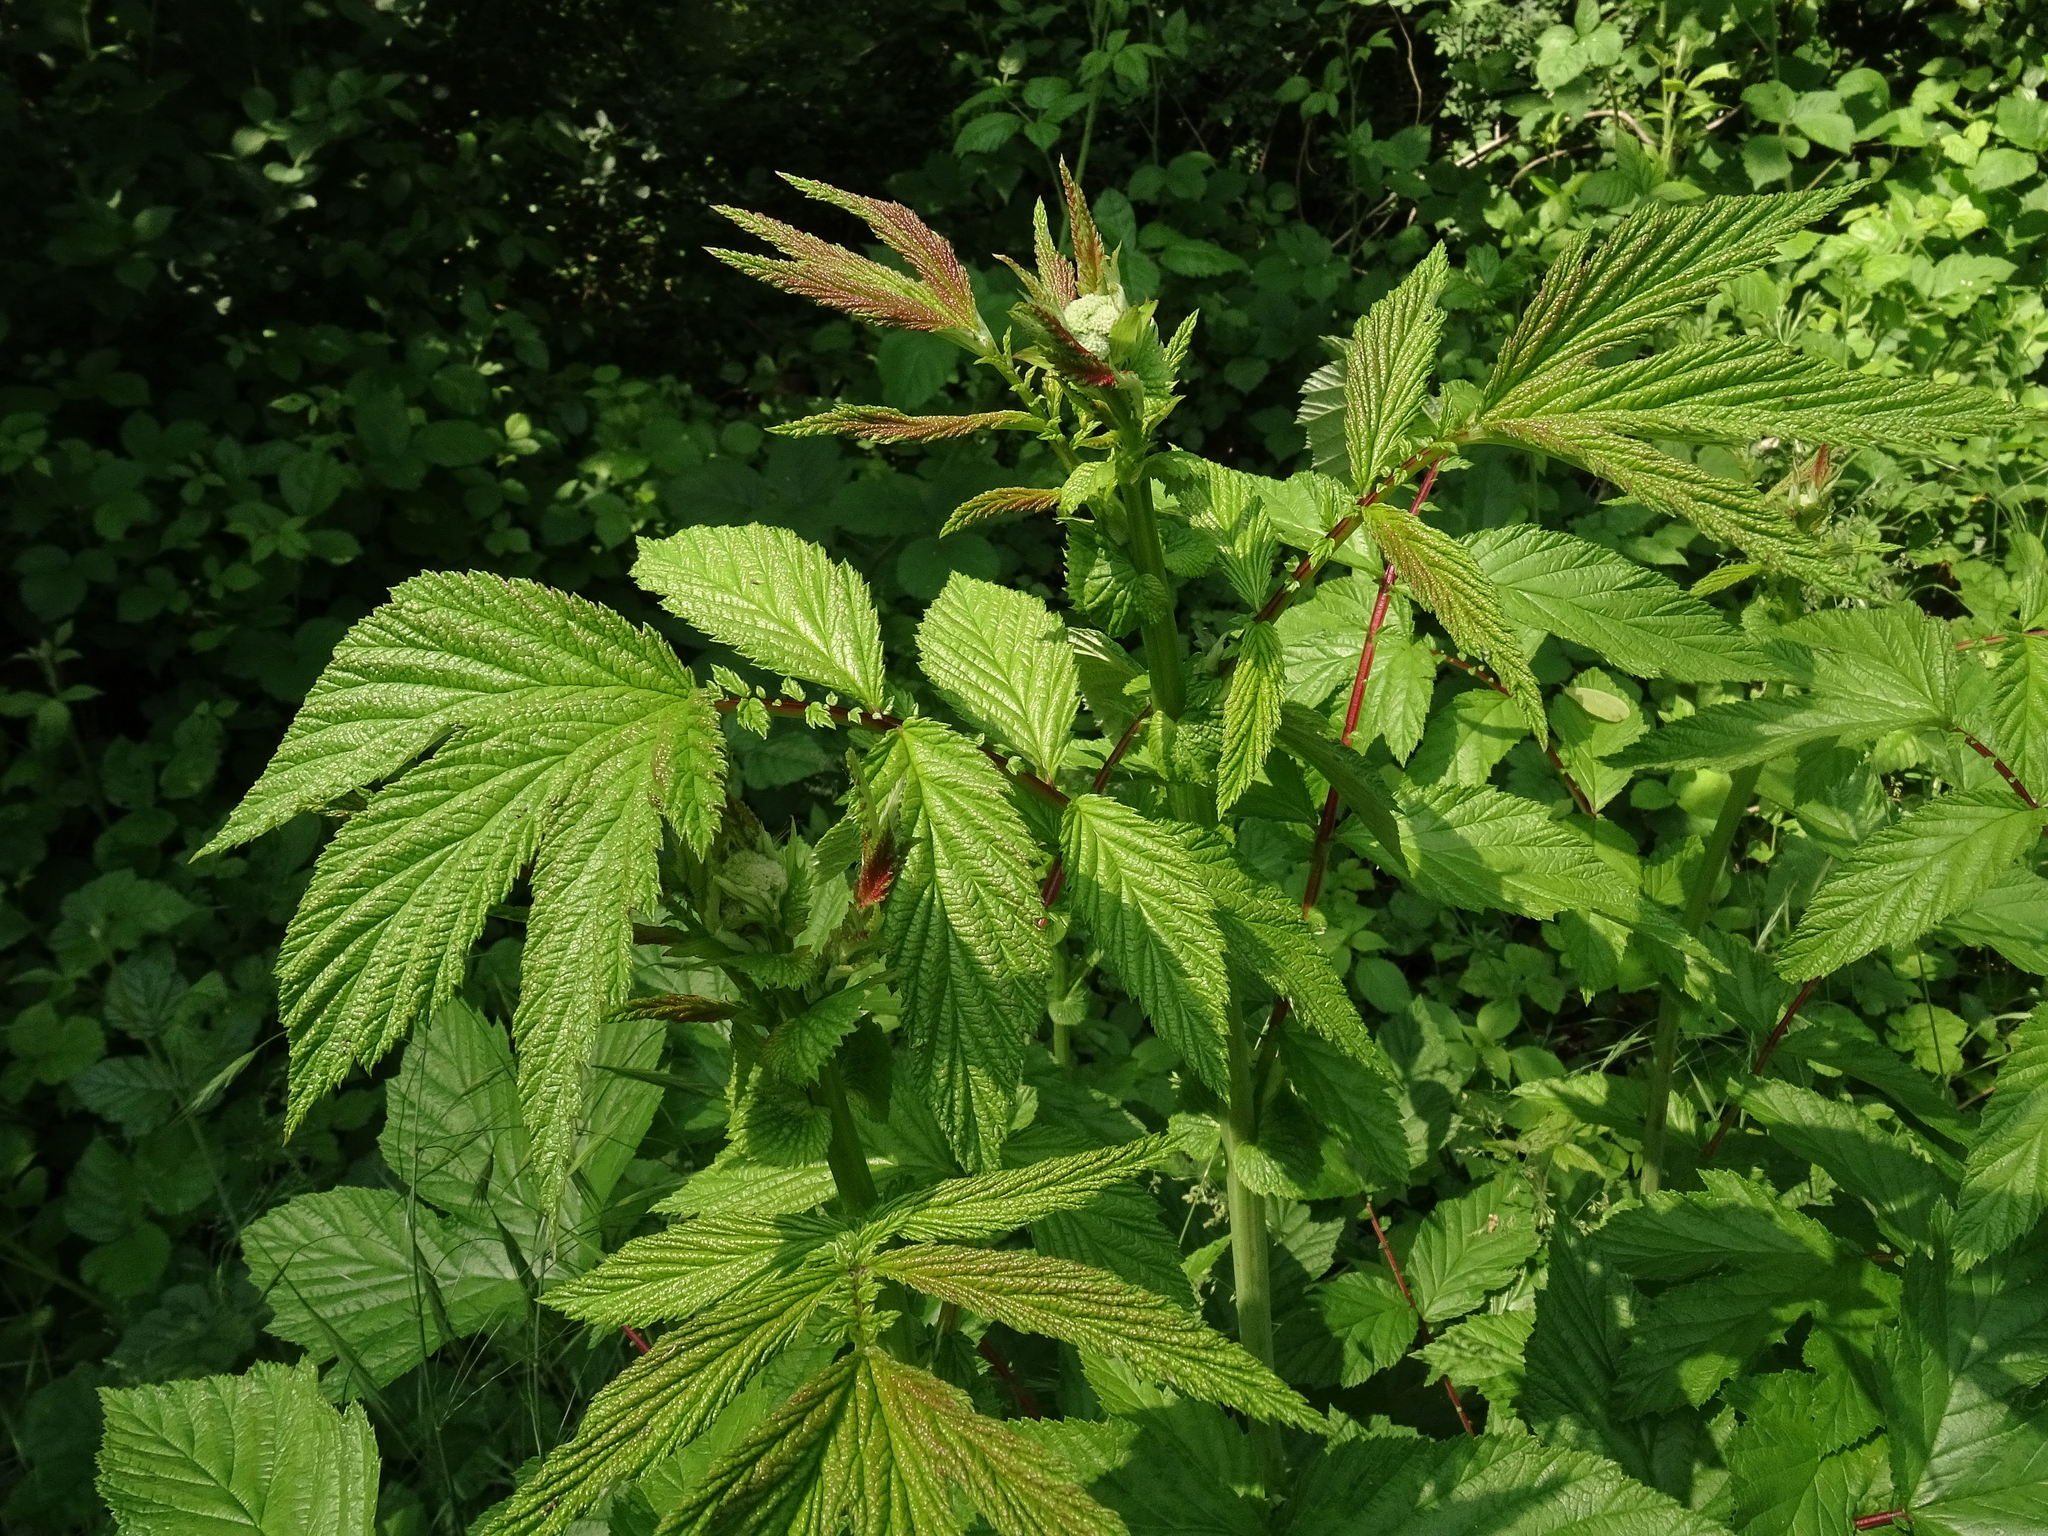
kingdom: Plantae
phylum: Tracheophyta
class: Magnoliopsida
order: Rosales
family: Rosaceae
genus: Filipendula
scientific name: Filipendula ulmaria
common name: Meadowsweet
